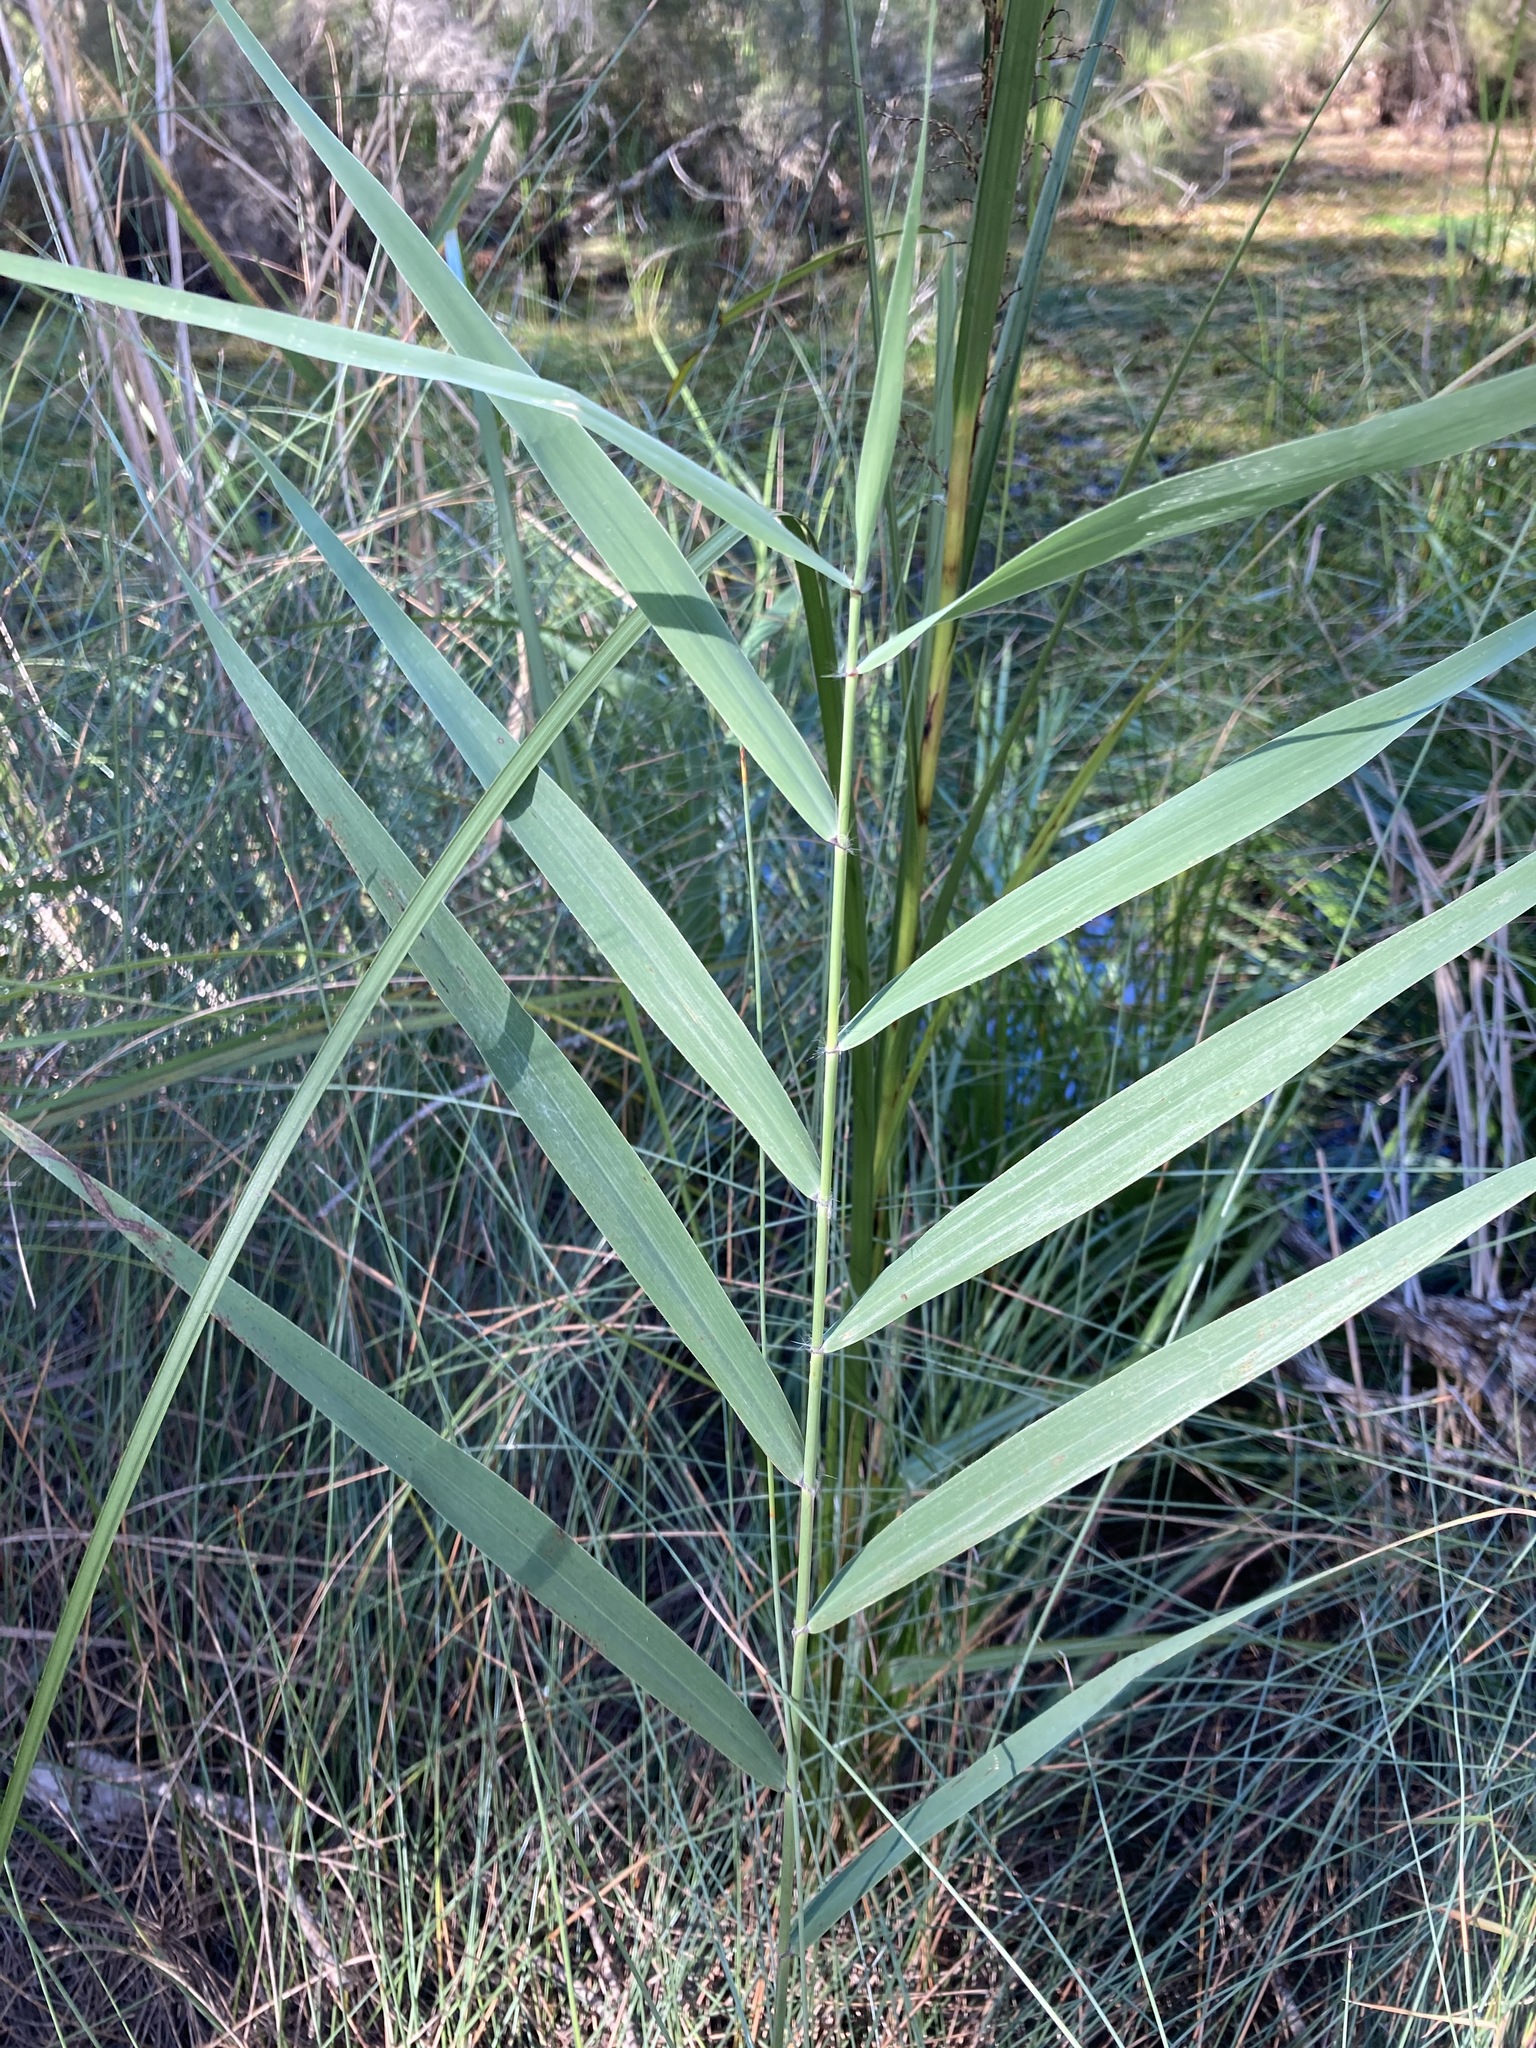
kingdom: Plantae
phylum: Tracheophyta
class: Liliopsida
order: Poales
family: Poaceae
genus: Phragmites
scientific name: Phragmites australis
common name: Common reed
